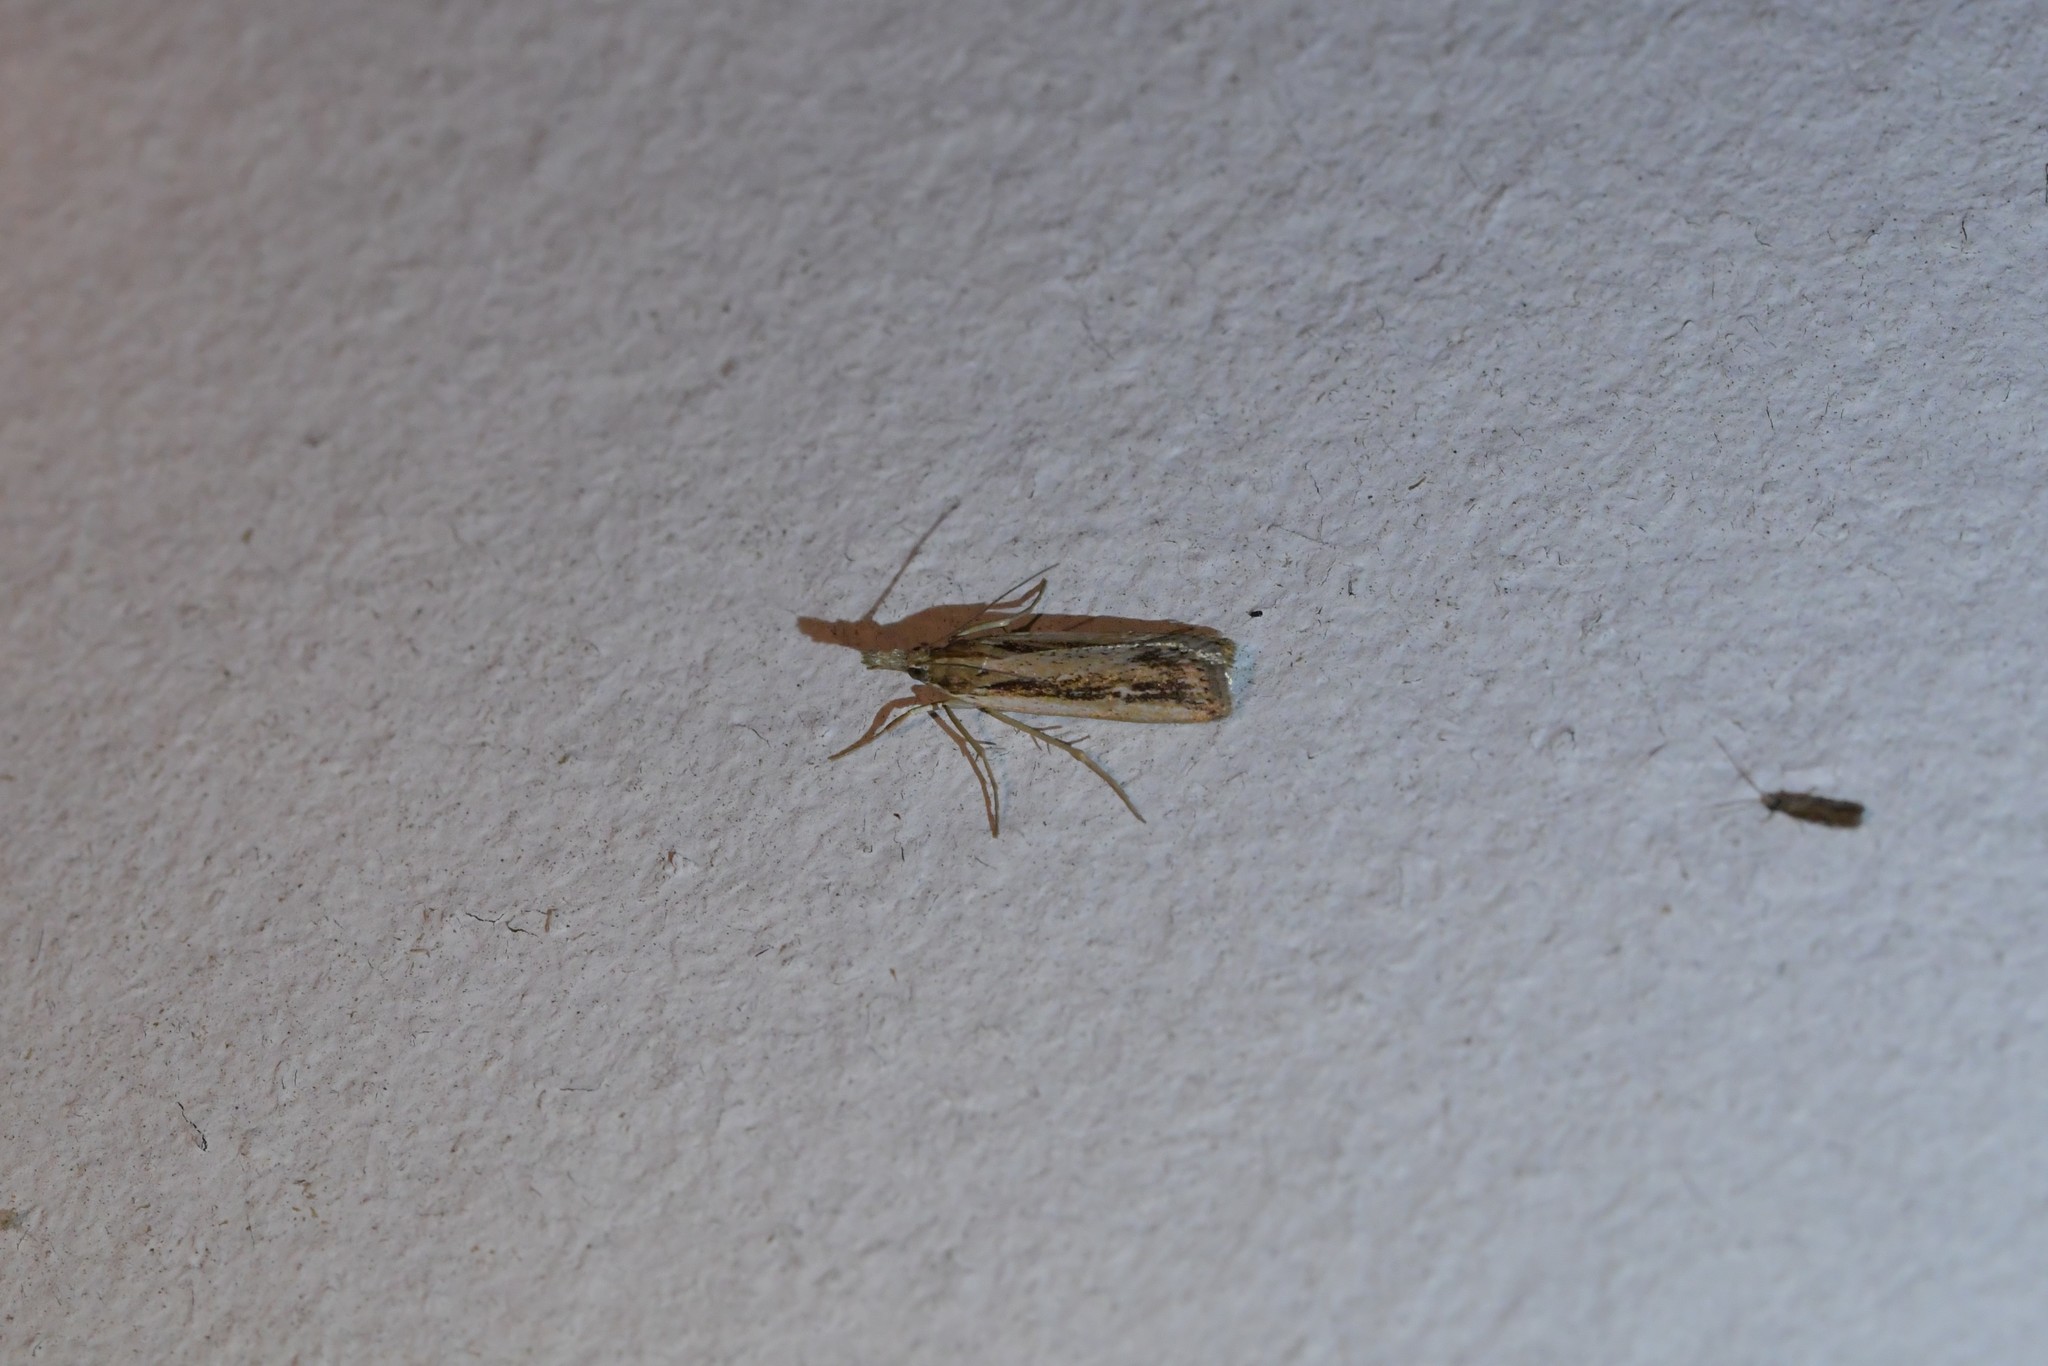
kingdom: Animalia
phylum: Arthropoda
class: Insecta
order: Lepidoptera
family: Crambidae
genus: Eudonia
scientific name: Eudonia sabulosella
